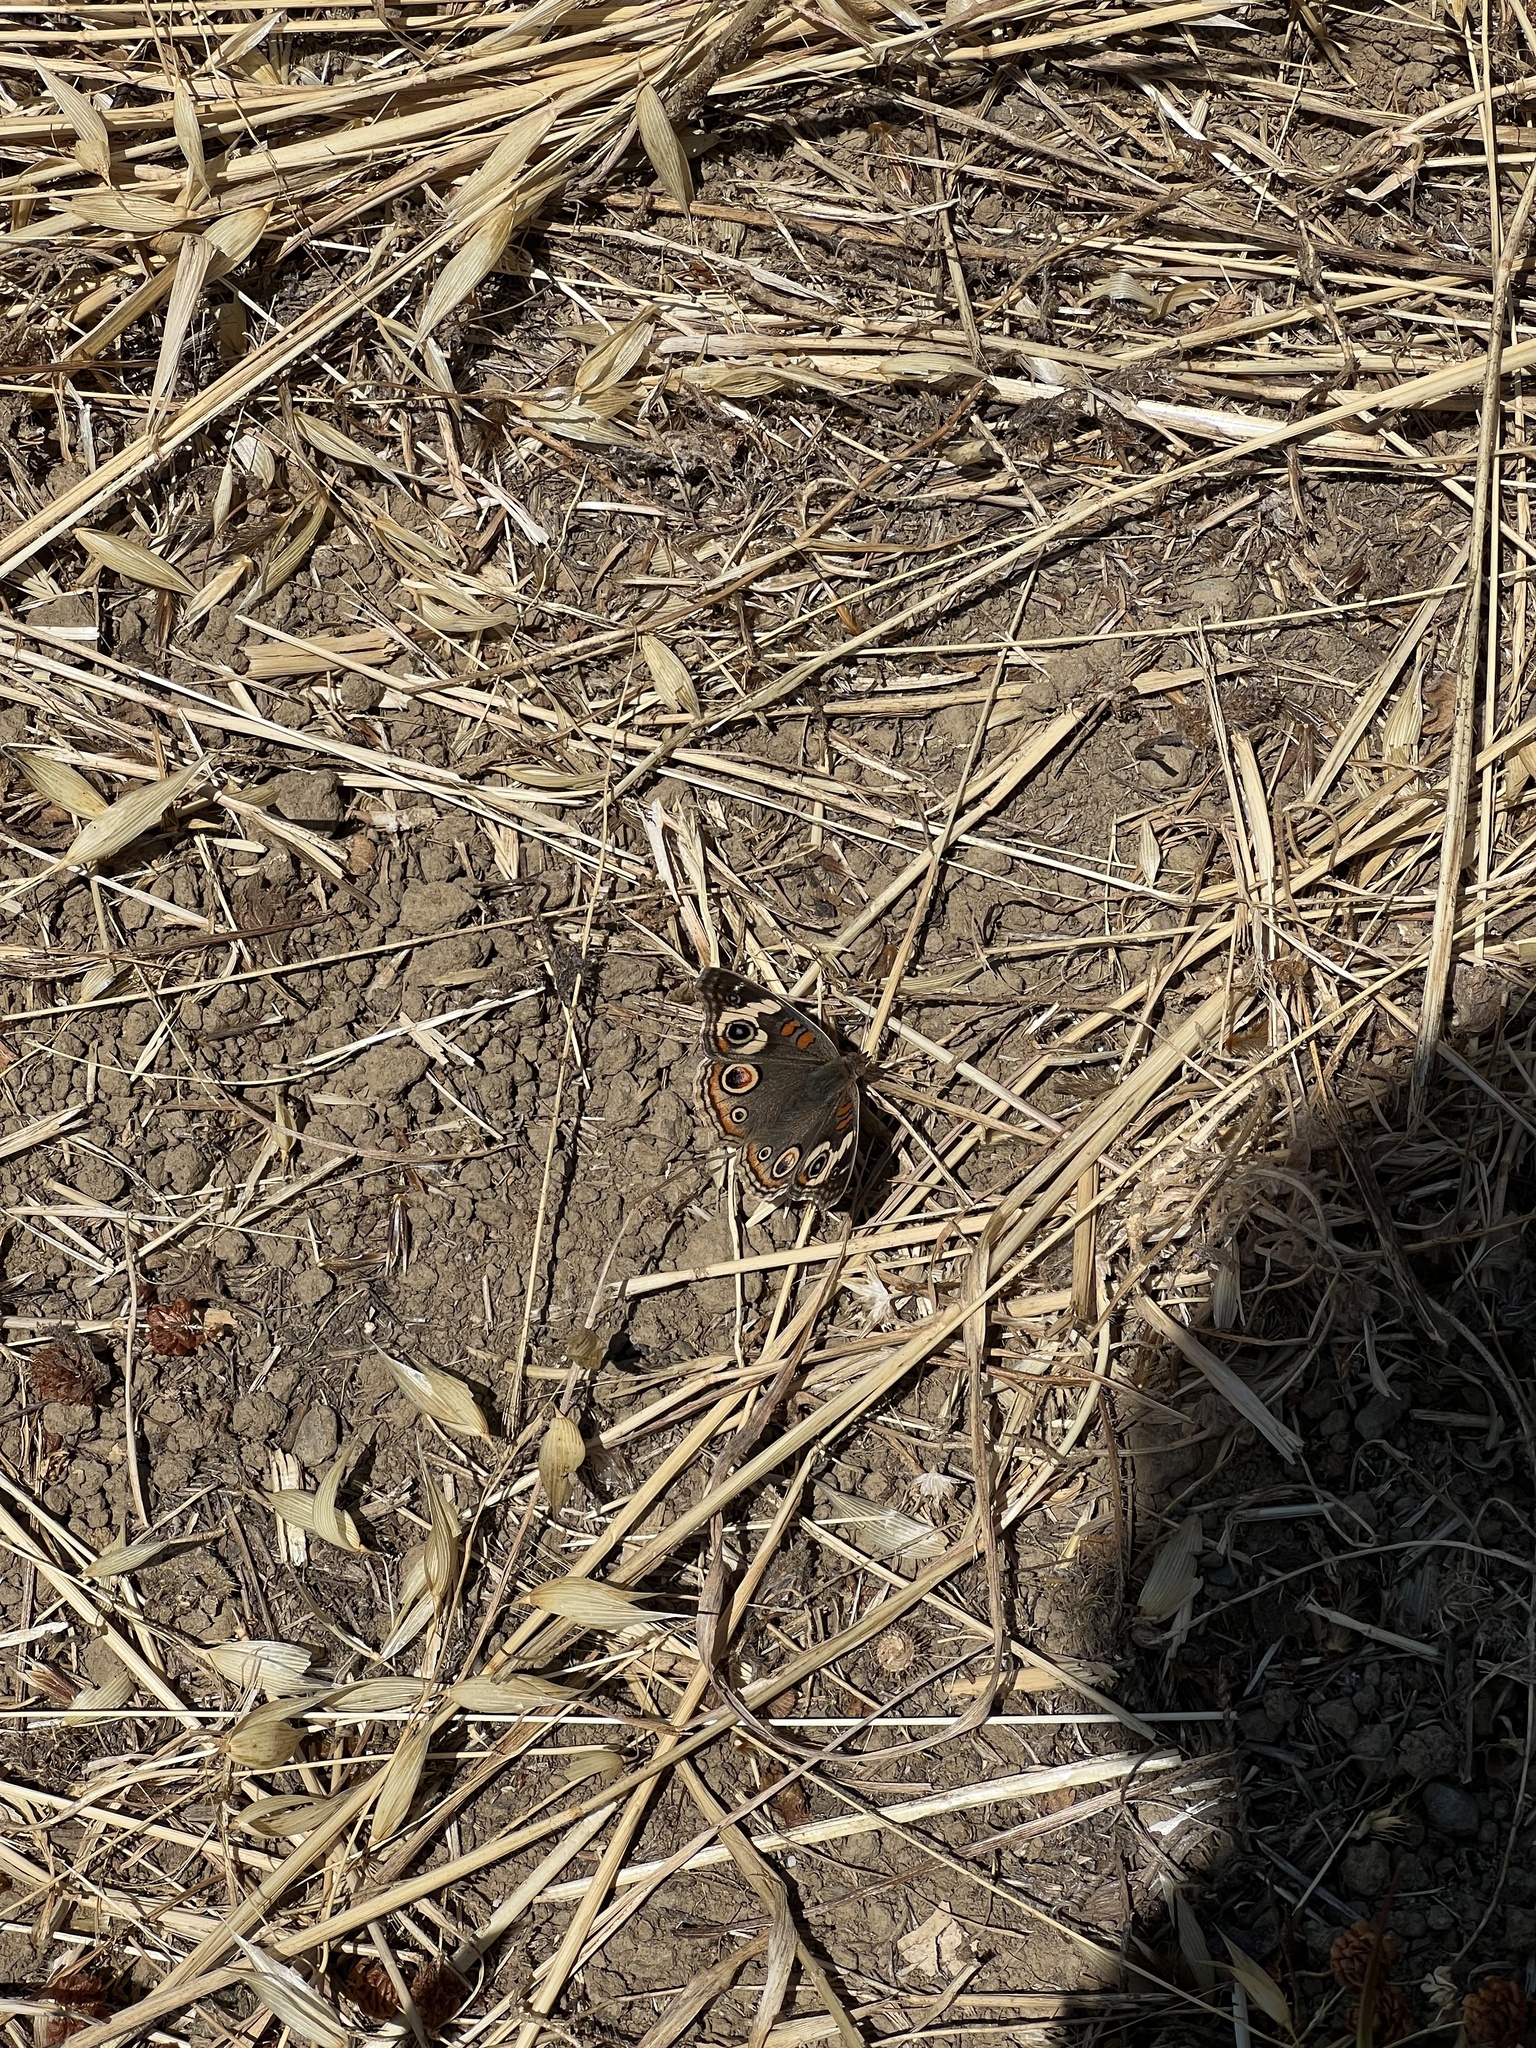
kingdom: Animalia
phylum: Arthropoda
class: Insecta
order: Lepidoptera
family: Nymphalidae
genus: Junonia
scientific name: Junonia grisea
